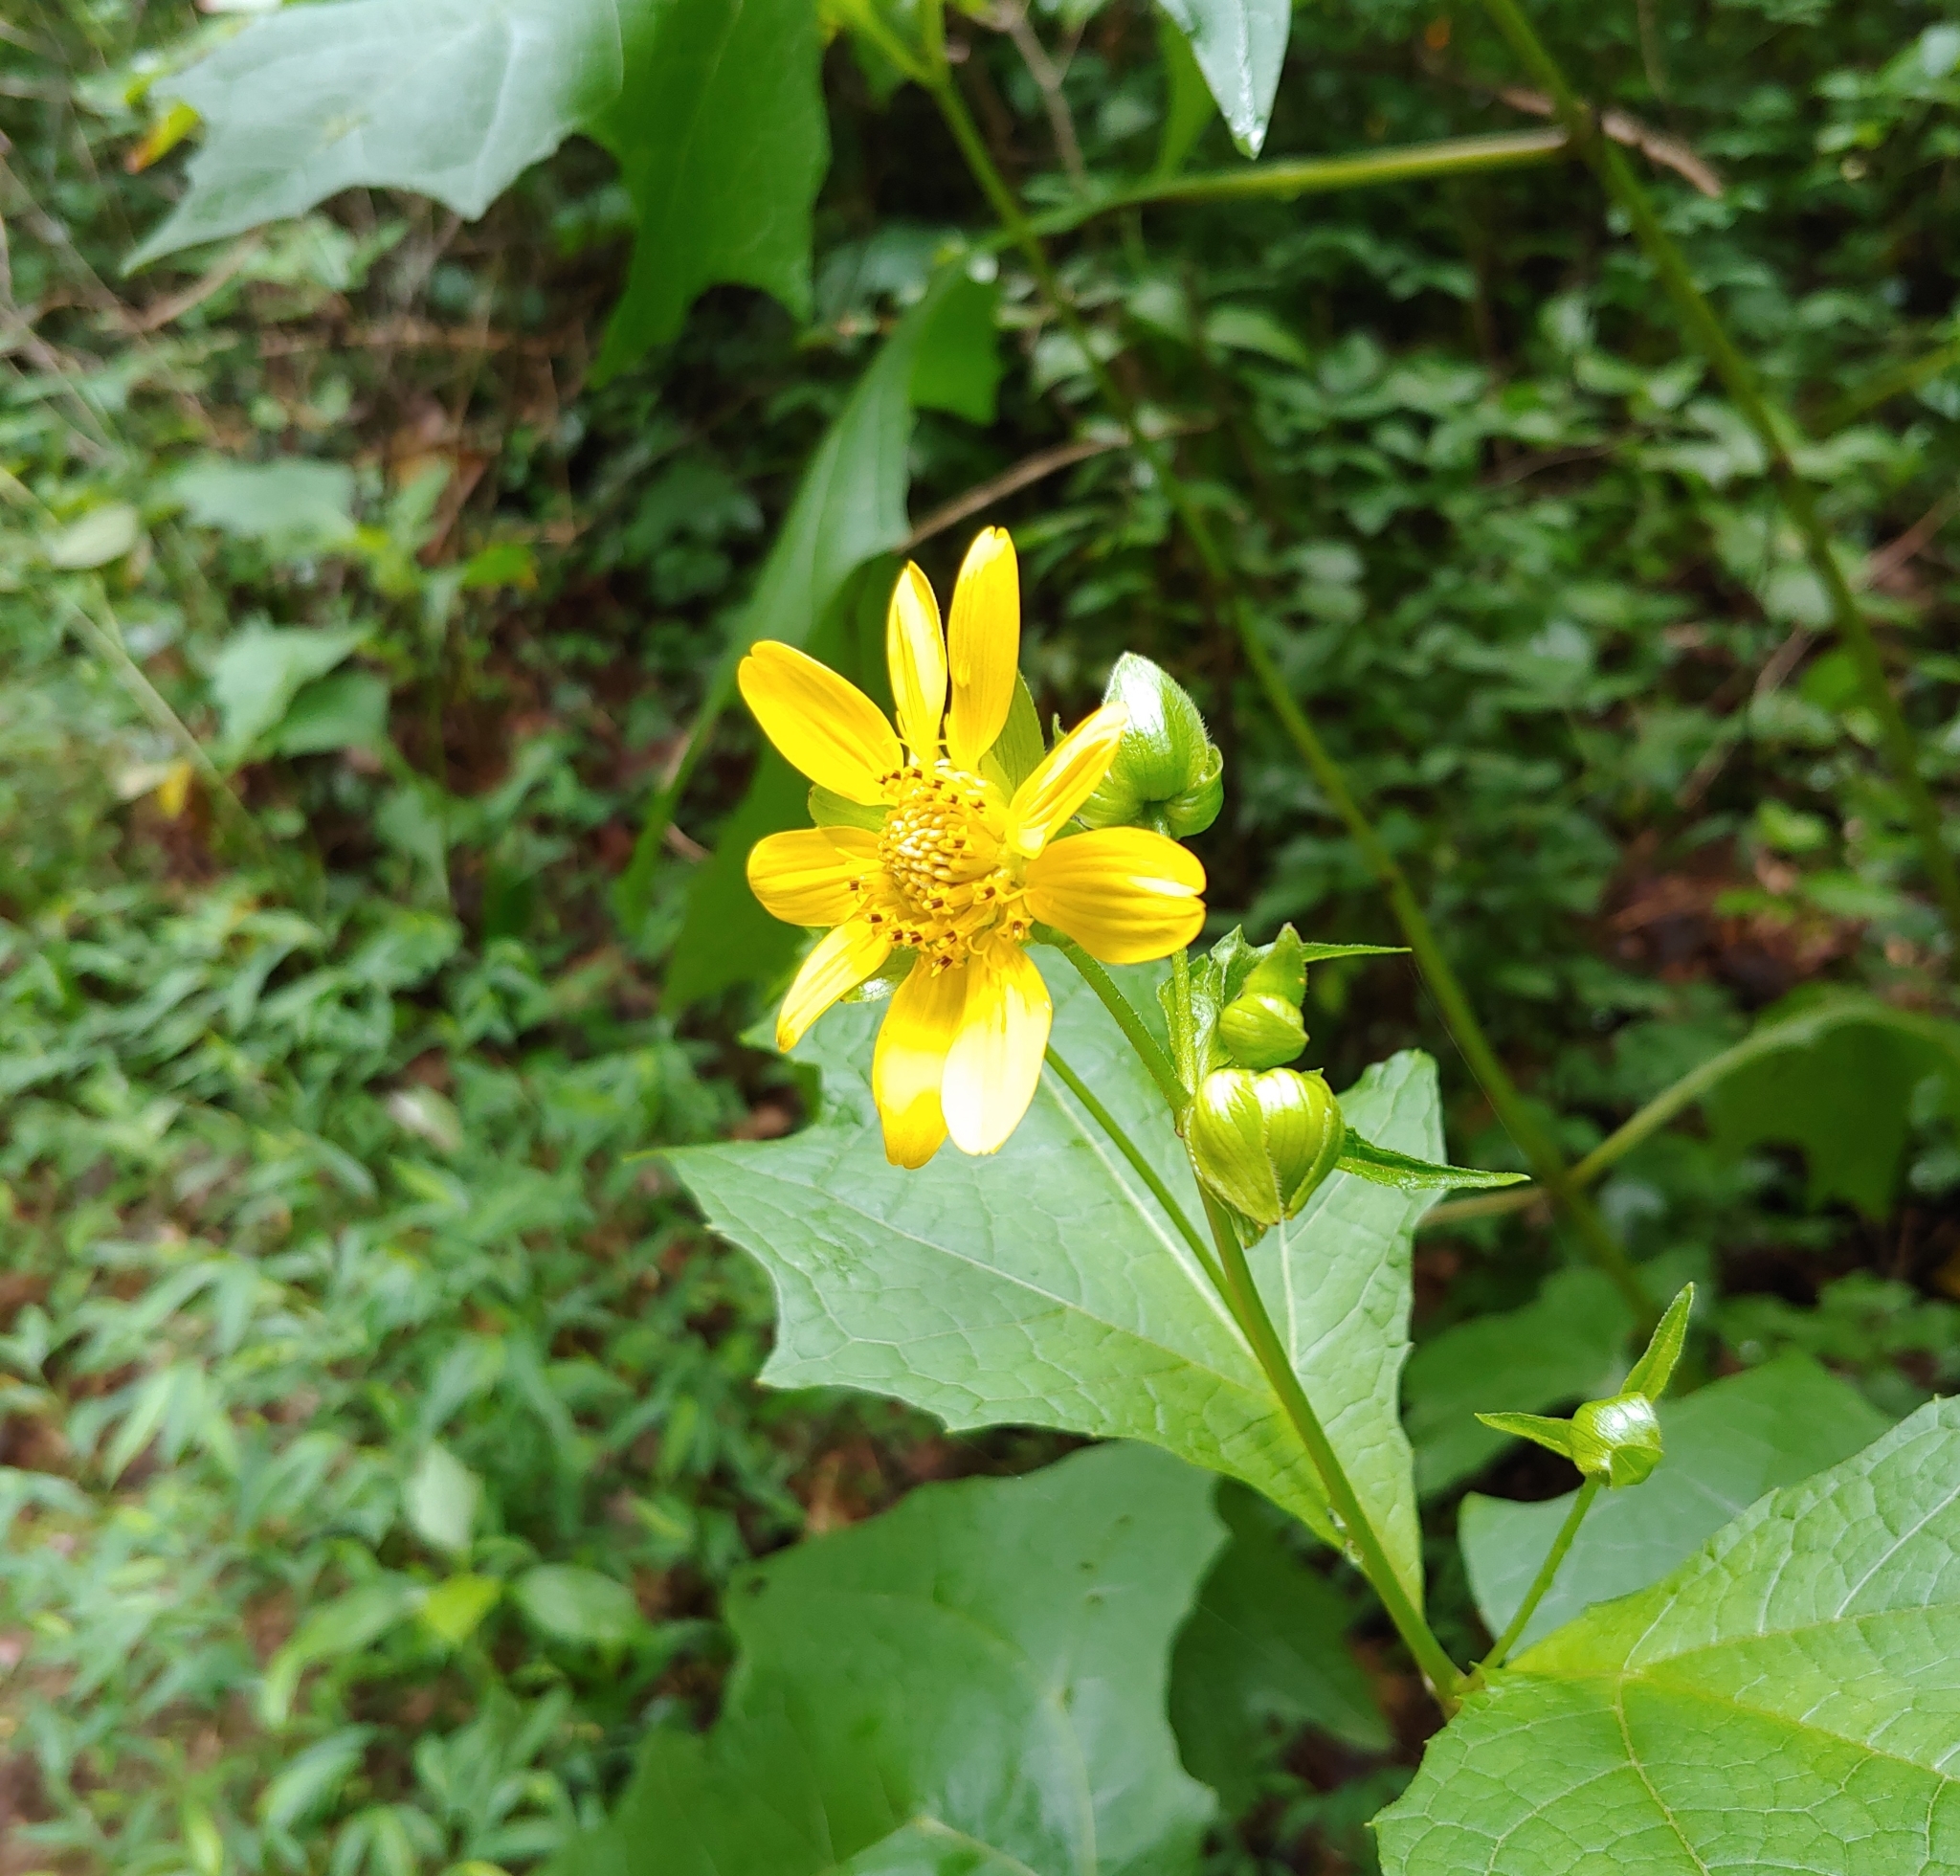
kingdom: Plantae
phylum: Tracheophyta
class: Magnoliopsida
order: Asterales
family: Asteraceae
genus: Smallanthus
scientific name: Smallanthus uvedalia
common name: Bear's-foot
